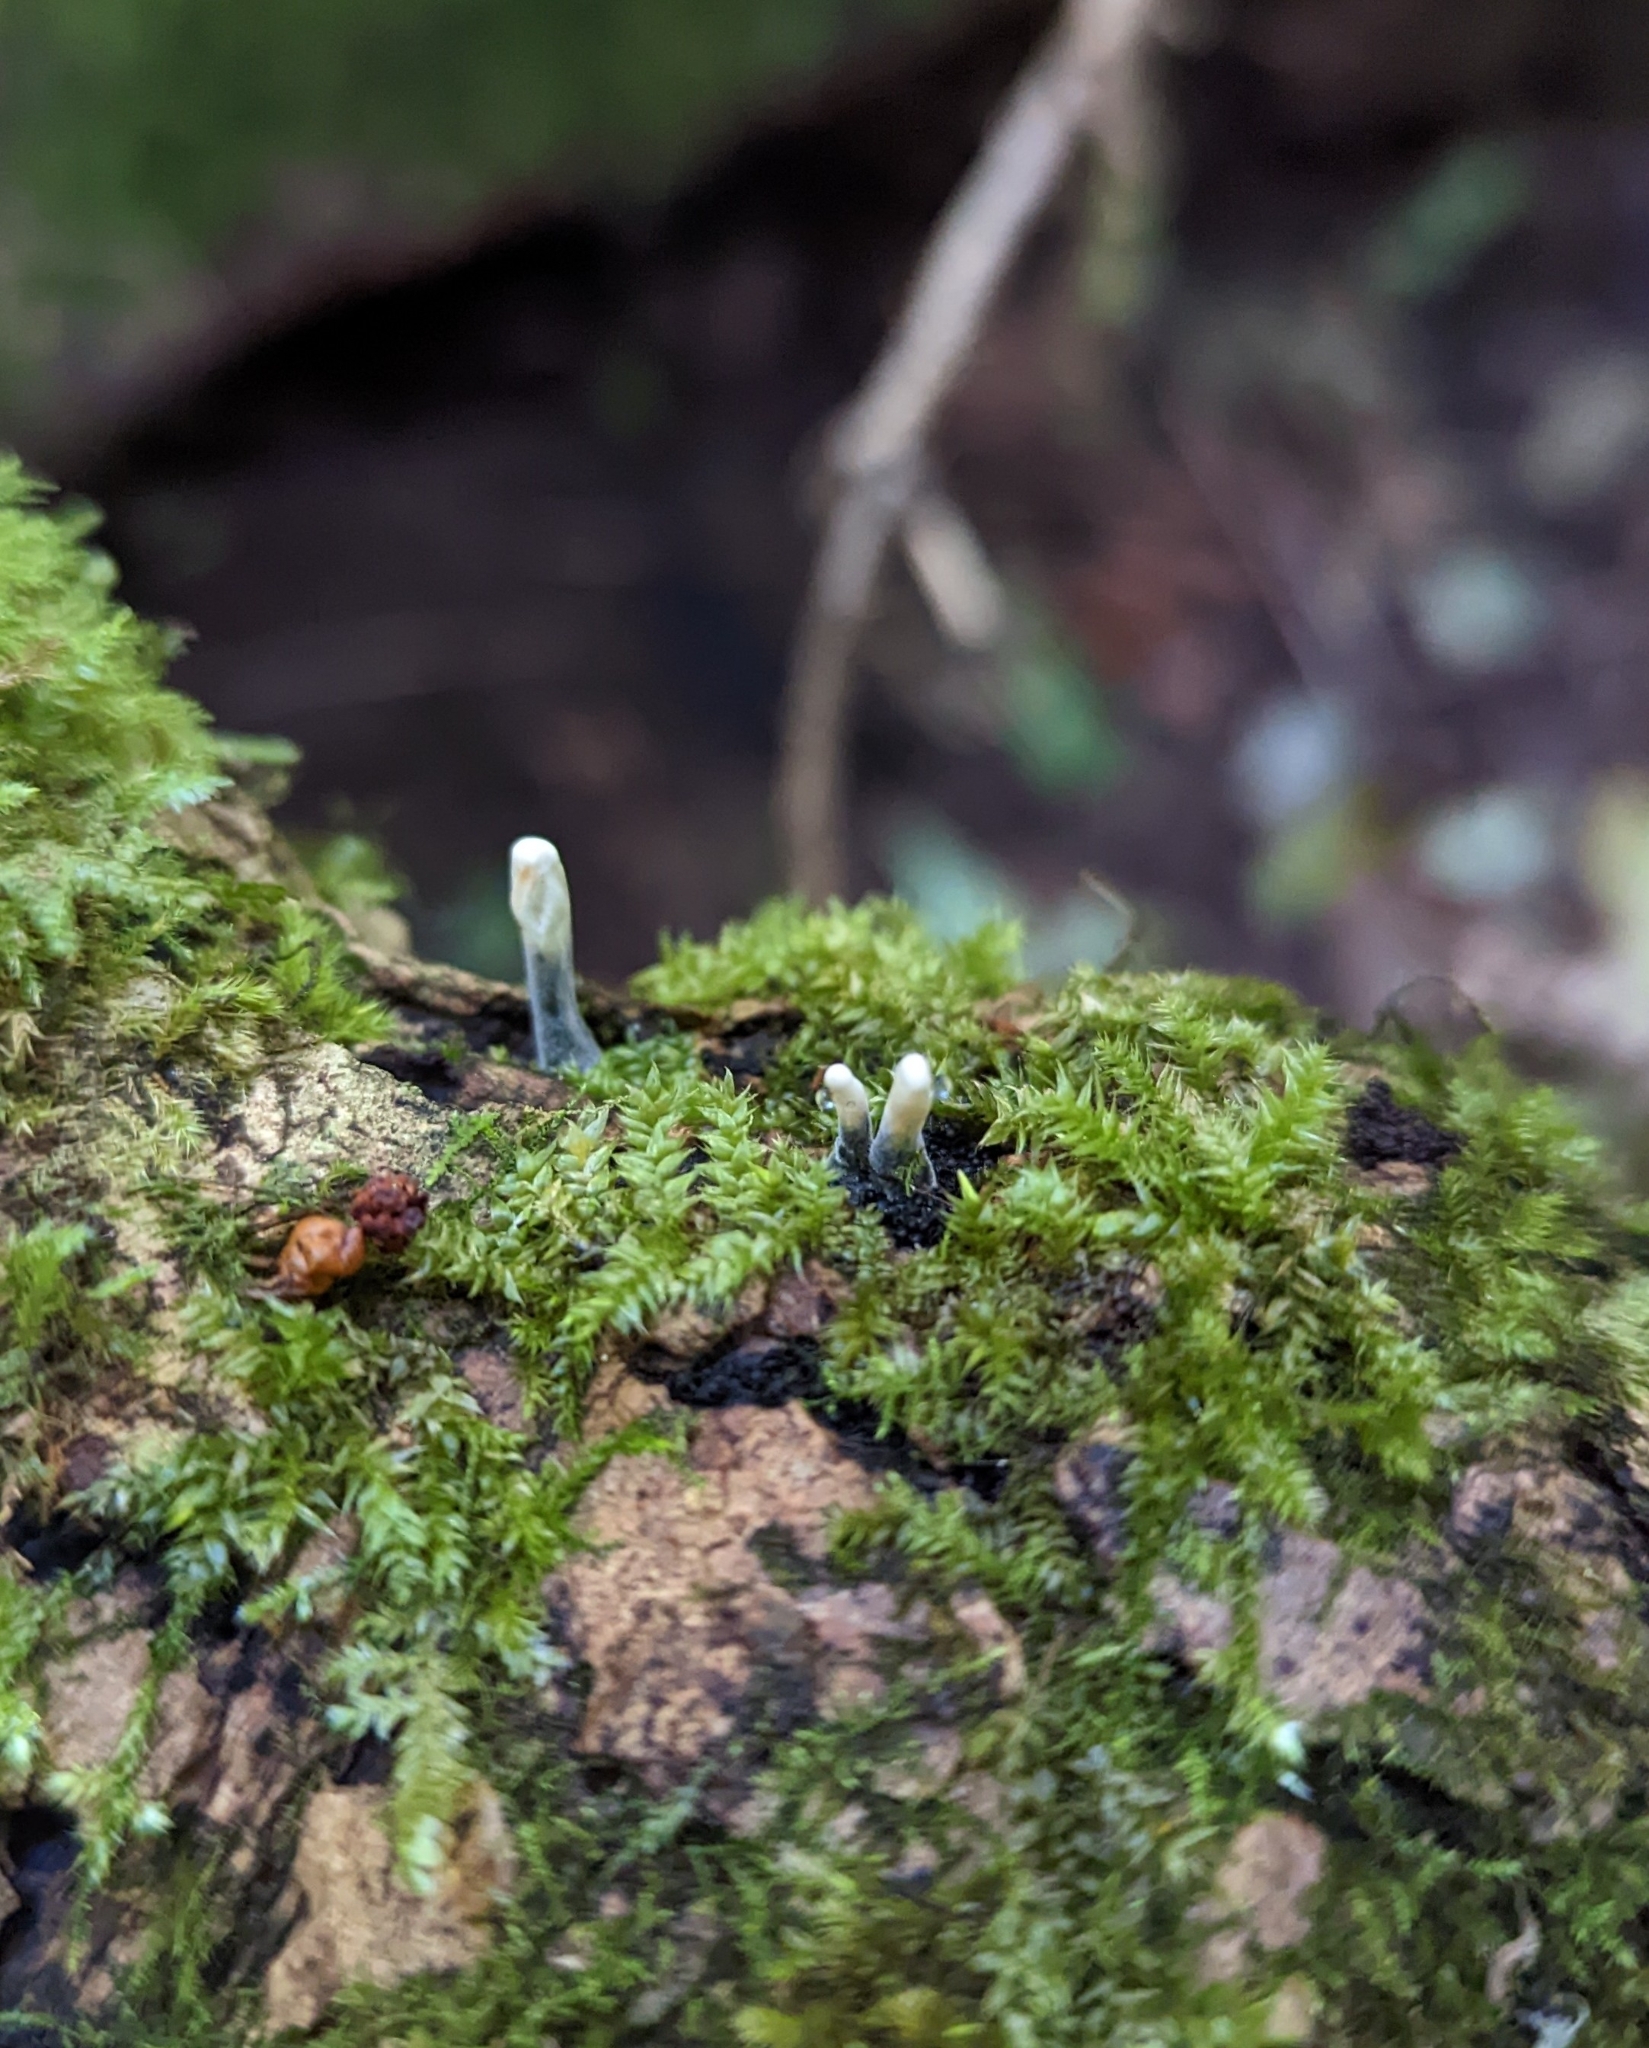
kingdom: Fungi
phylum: Ascomycota
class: Sordariomycetes
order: Xylariales
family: Xylariaceae
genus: Xylaria
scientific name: Xylaria hypoxylon
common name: Candle-snuff fungus
